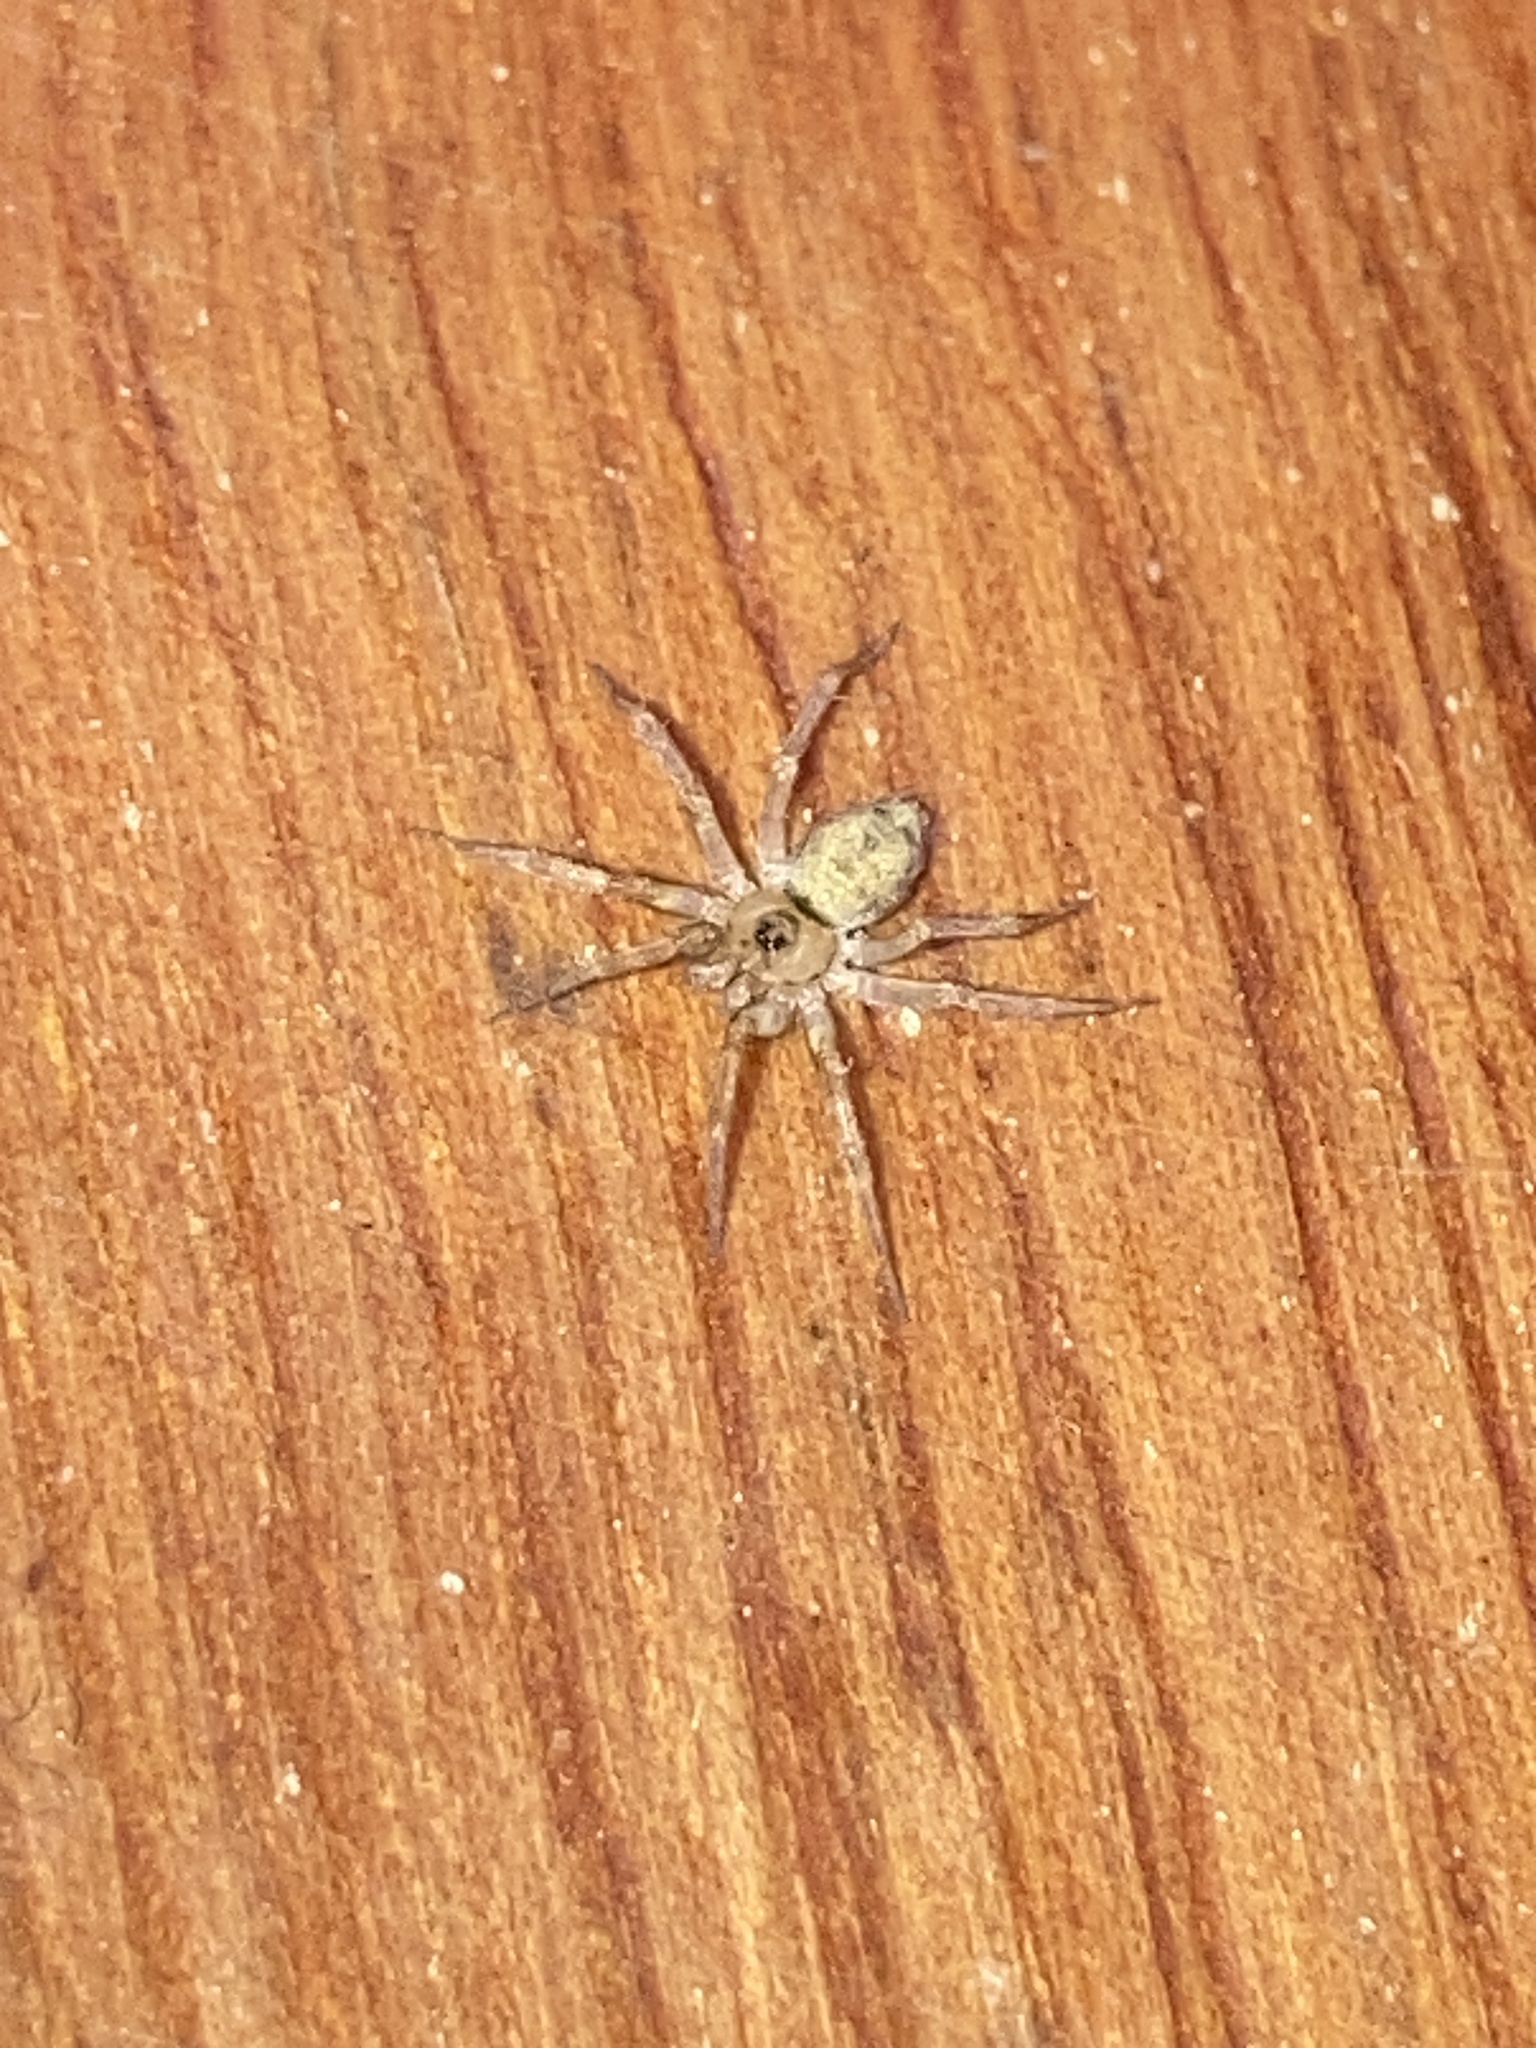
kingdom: Animalia
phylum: Arthropoda
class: Arachnida
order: Araneae
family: Oecobiidae
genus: Oecobius
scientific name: Oecobius navus
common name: Flatmesh weaver
